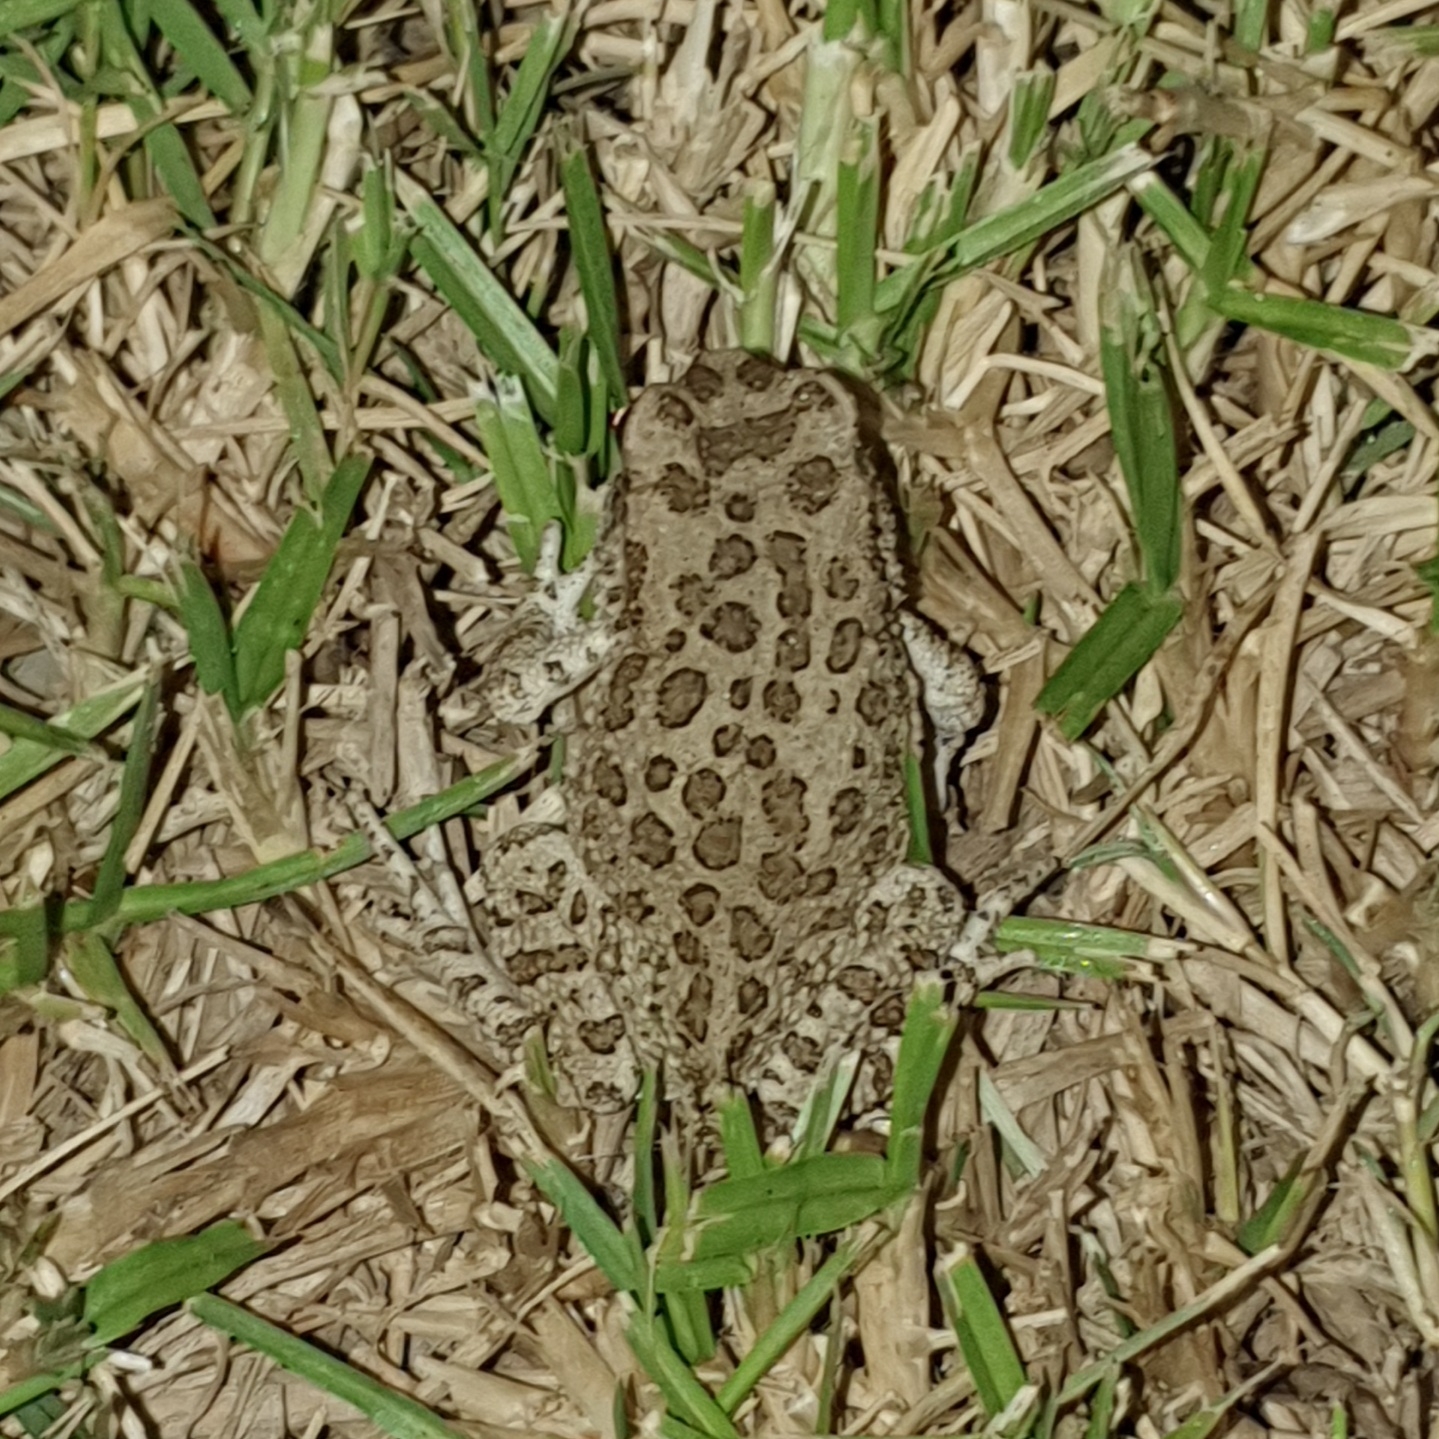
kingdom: Animalia
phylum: Chordata
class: Amphibia
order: Anura
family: Bufonidae
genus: Sclerophrys
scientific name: Sclerophrys mauritanica
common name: Berber toad
